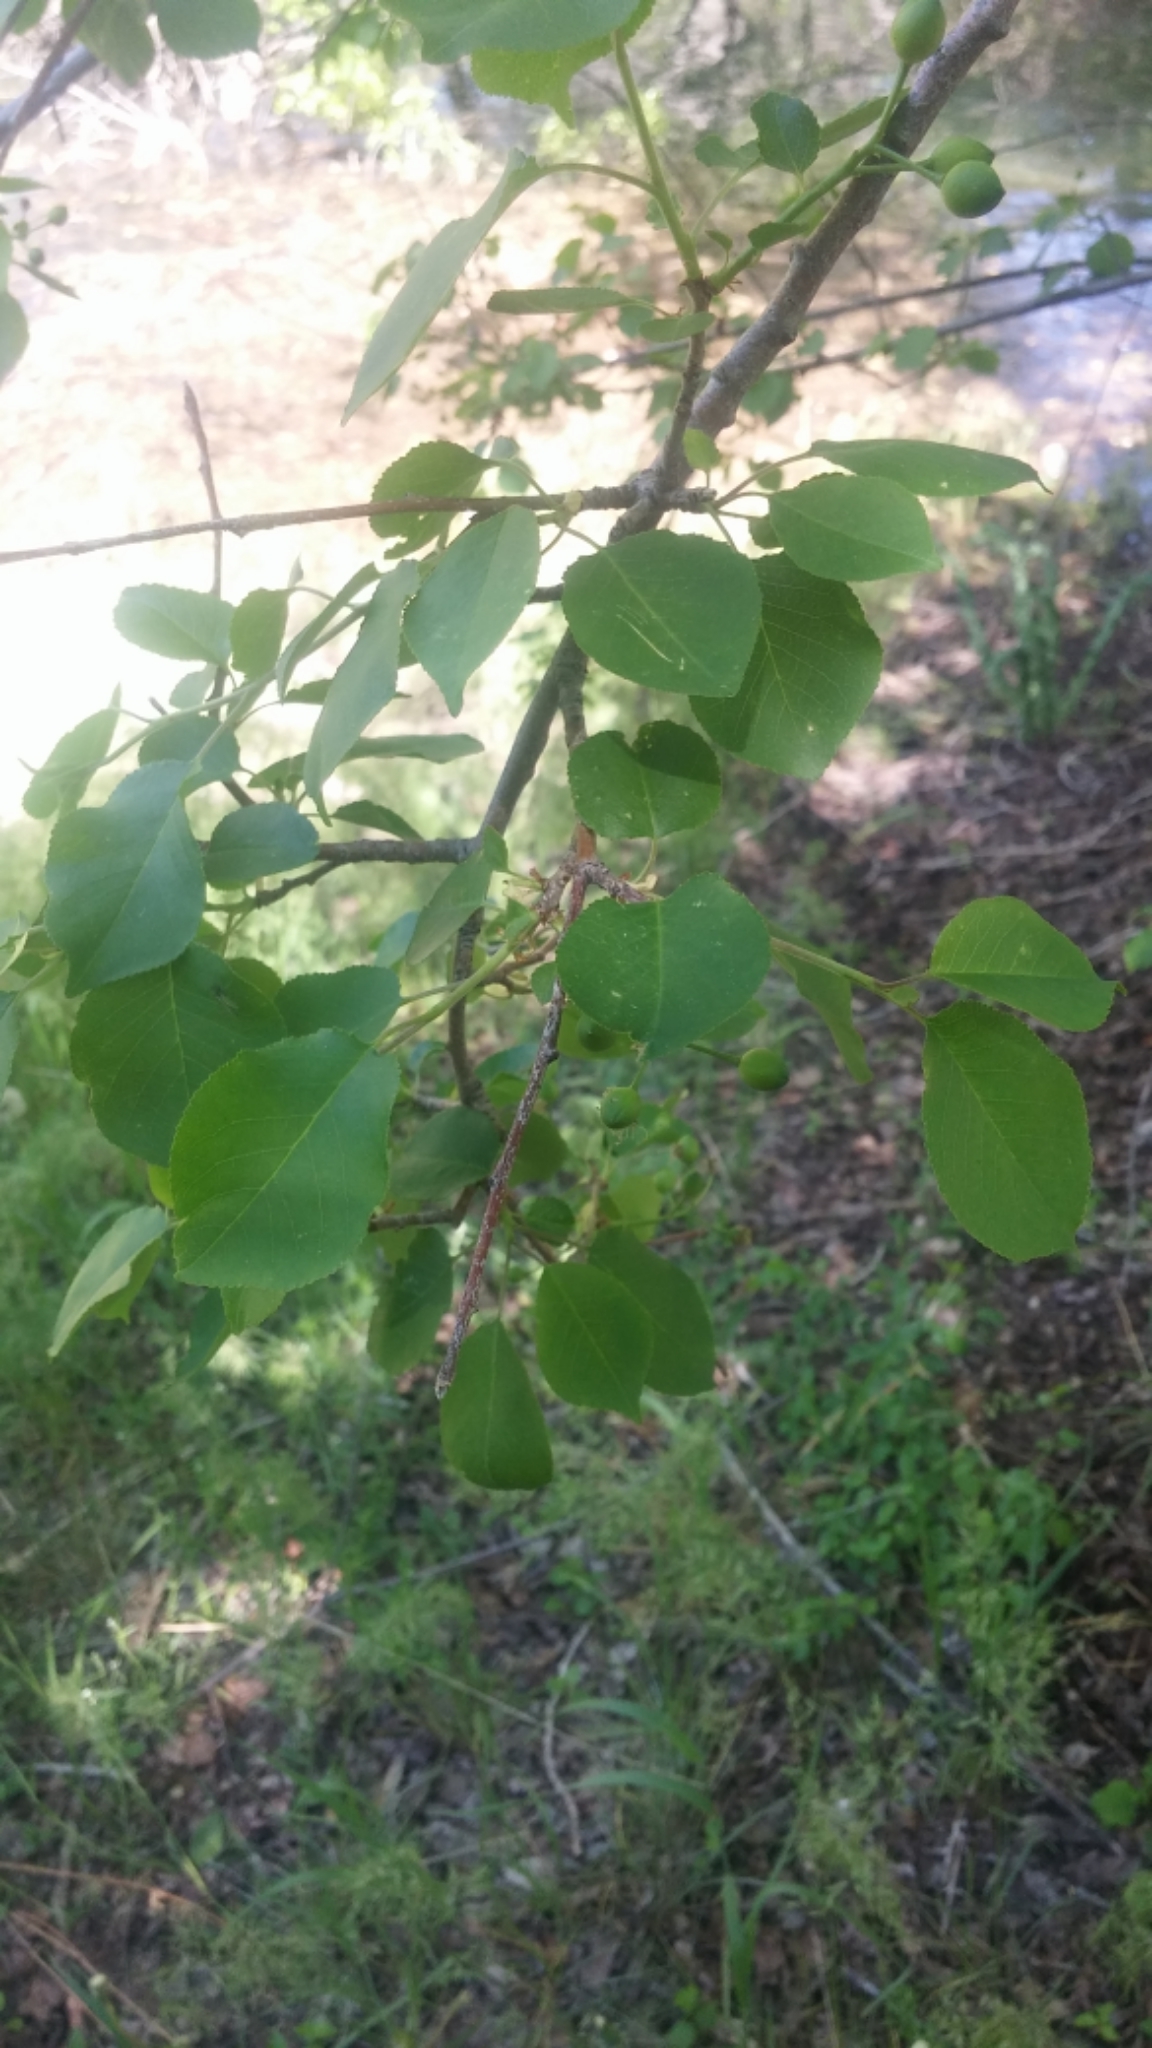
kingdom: Plantae
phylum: Tracheophyta
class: Magnoliopsida
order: Rosales
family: Rosaceae
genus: Prunus
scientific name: Prunus mahaleb
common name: Mahaleb cherry
